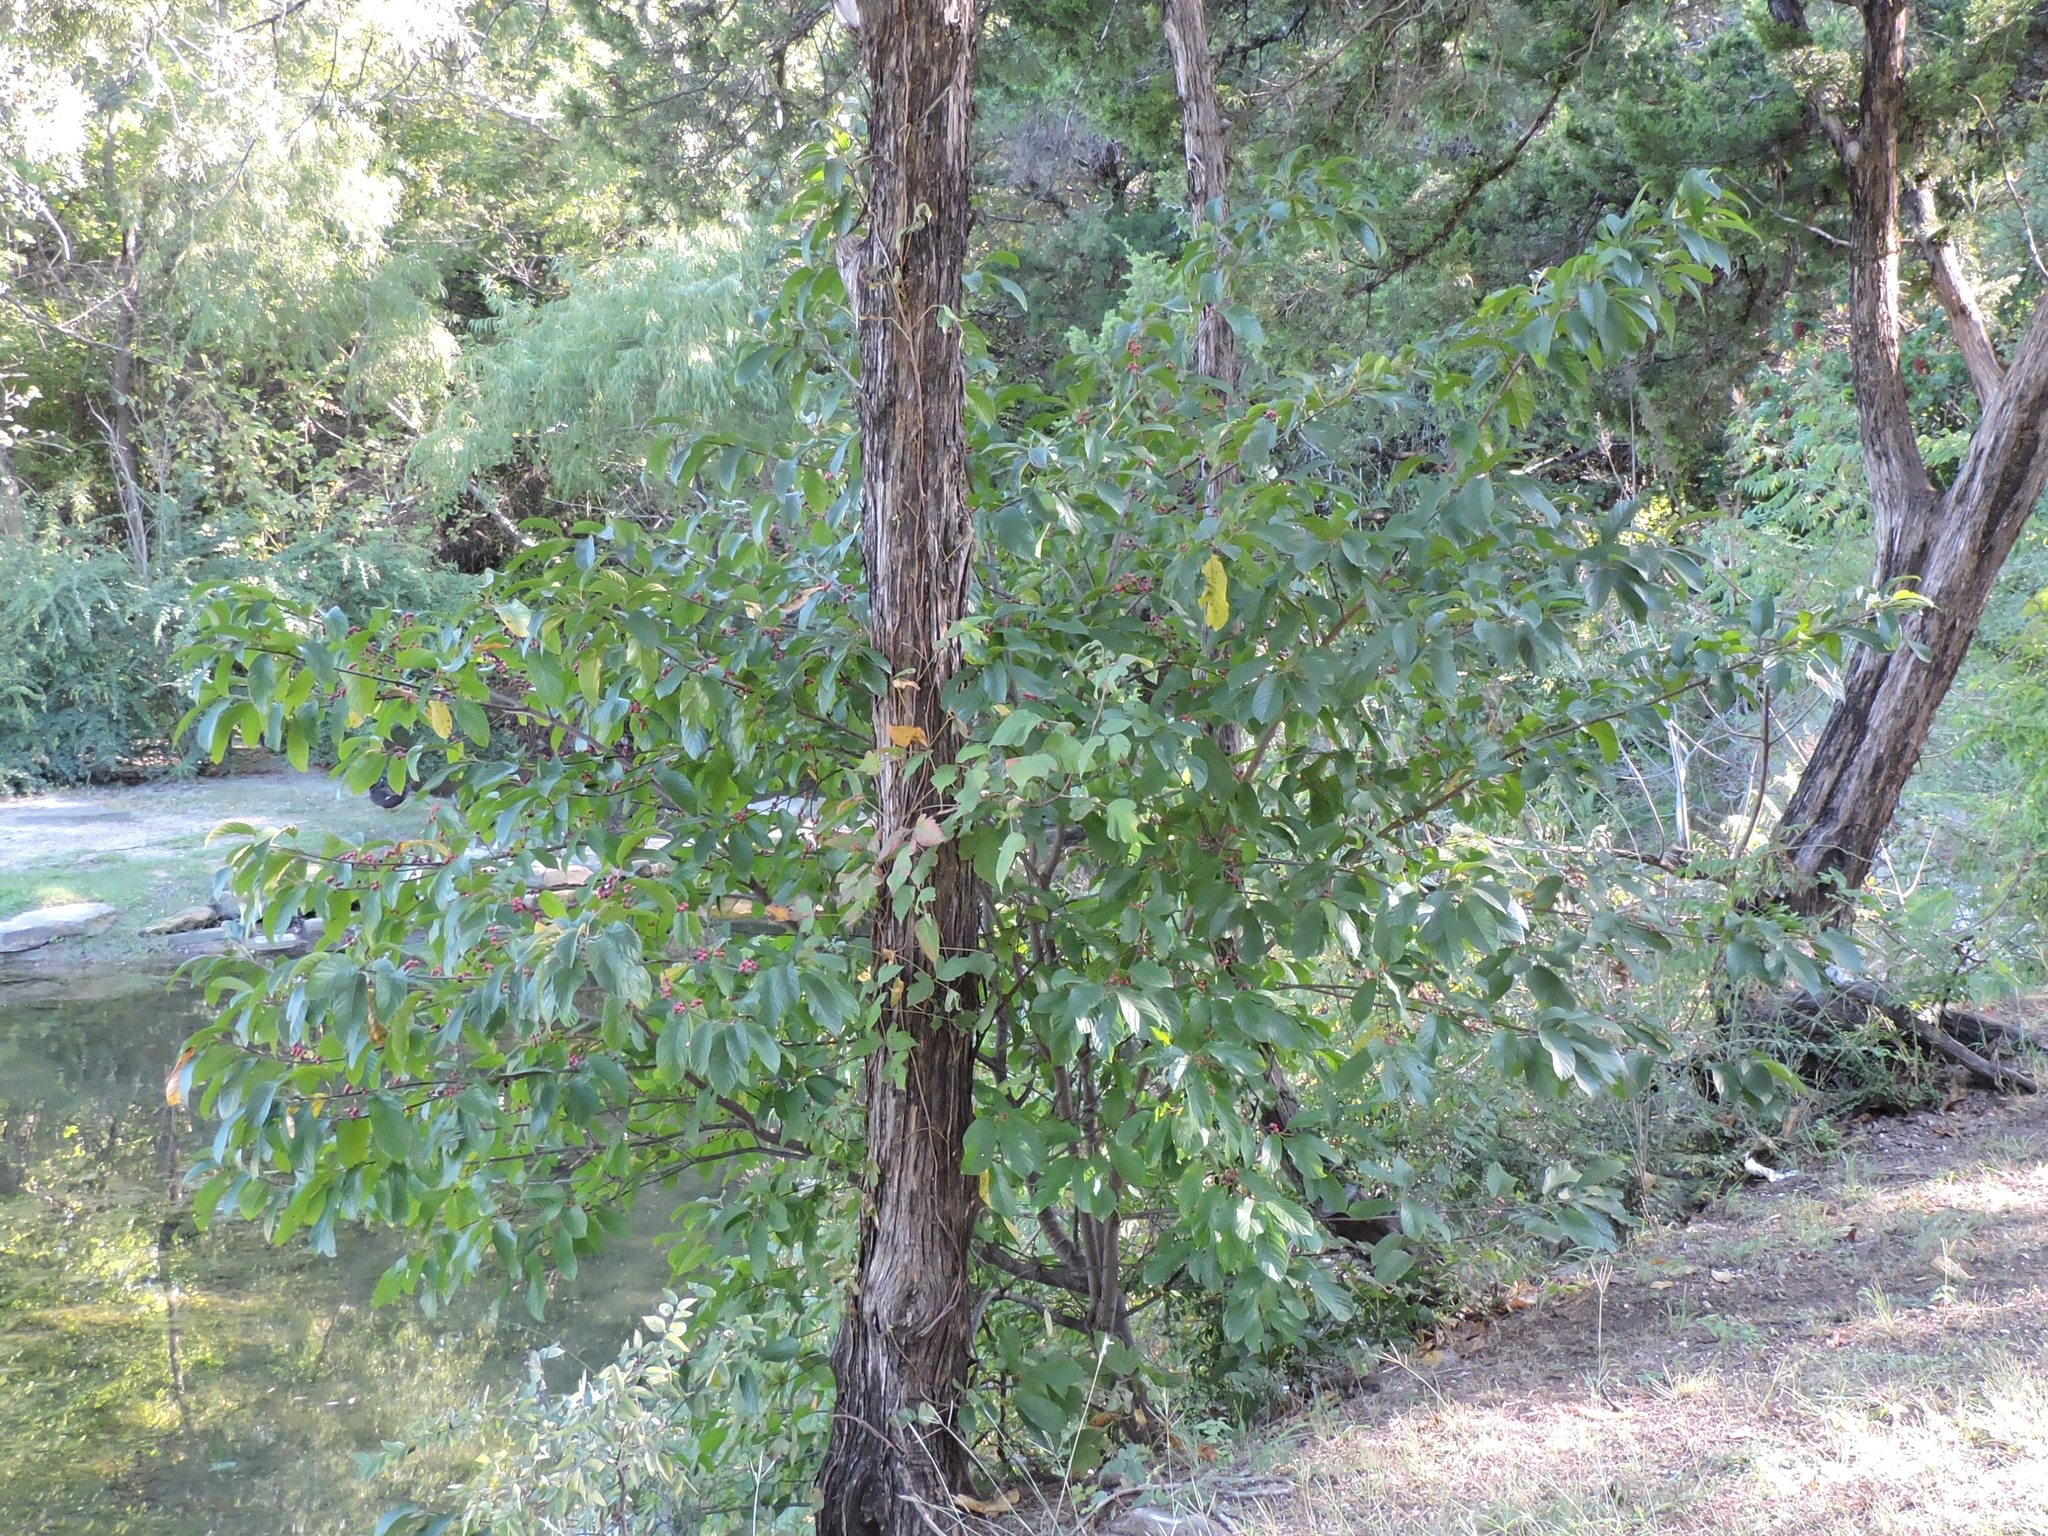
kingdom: Plantae
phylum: Tracheophyta
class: Magnoliopsida
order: Rosales
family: Rhamnaceae
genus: Frangula
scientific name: Frangula caroliniana
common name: Carolina buckthorn
